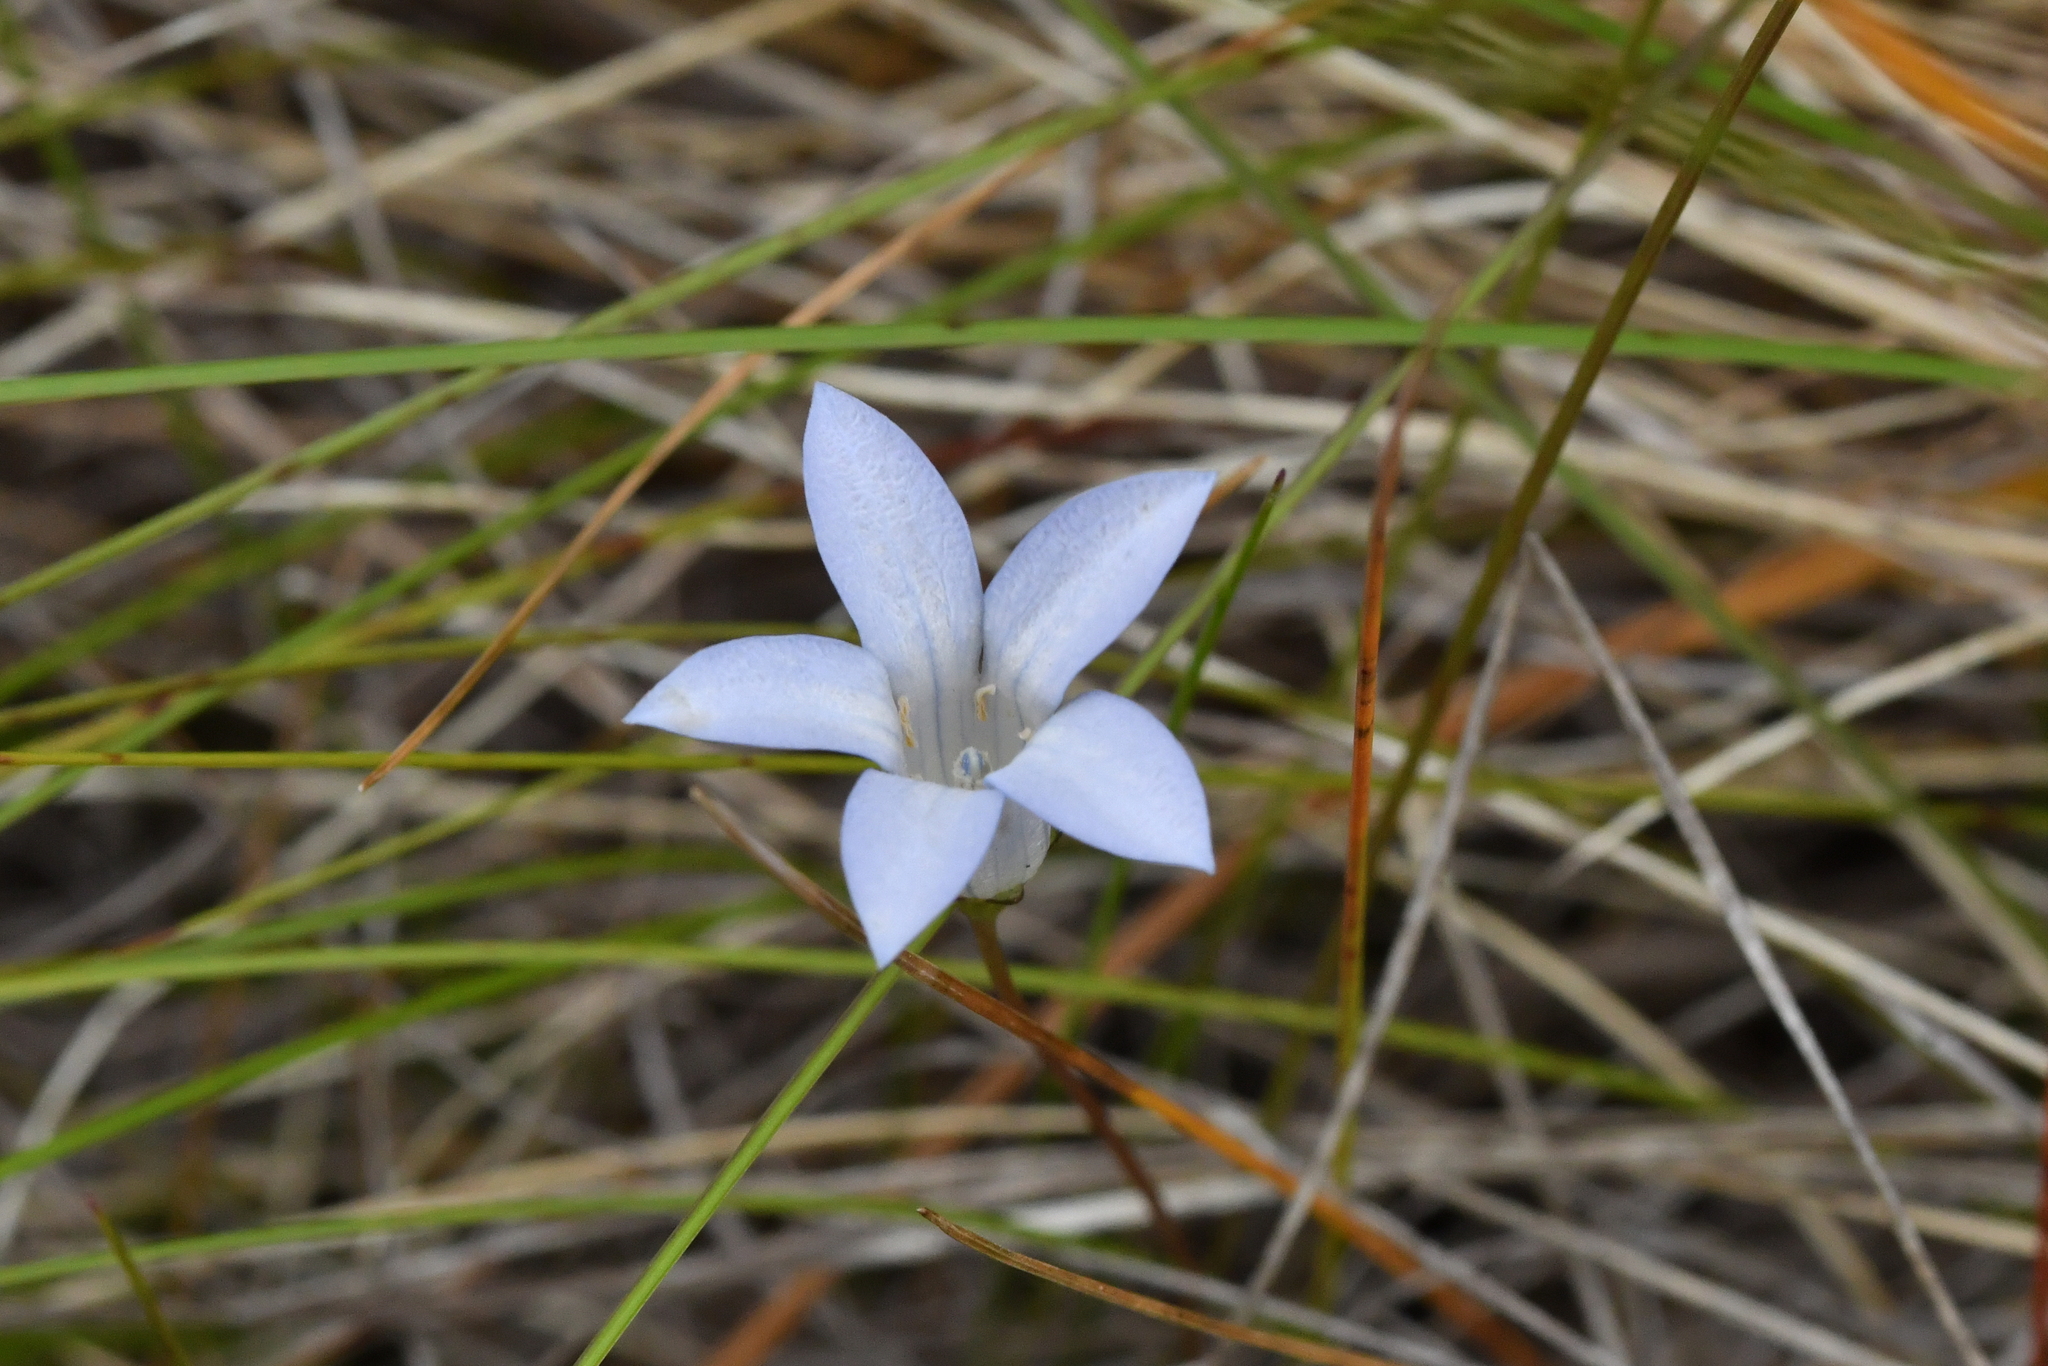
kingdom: Plantae
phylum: Tracheophyta
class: Magnoliopsida
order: Asterales
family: Campanulaceae
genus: Wahlenbergia
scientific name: Wahlenbergia albomarginata
